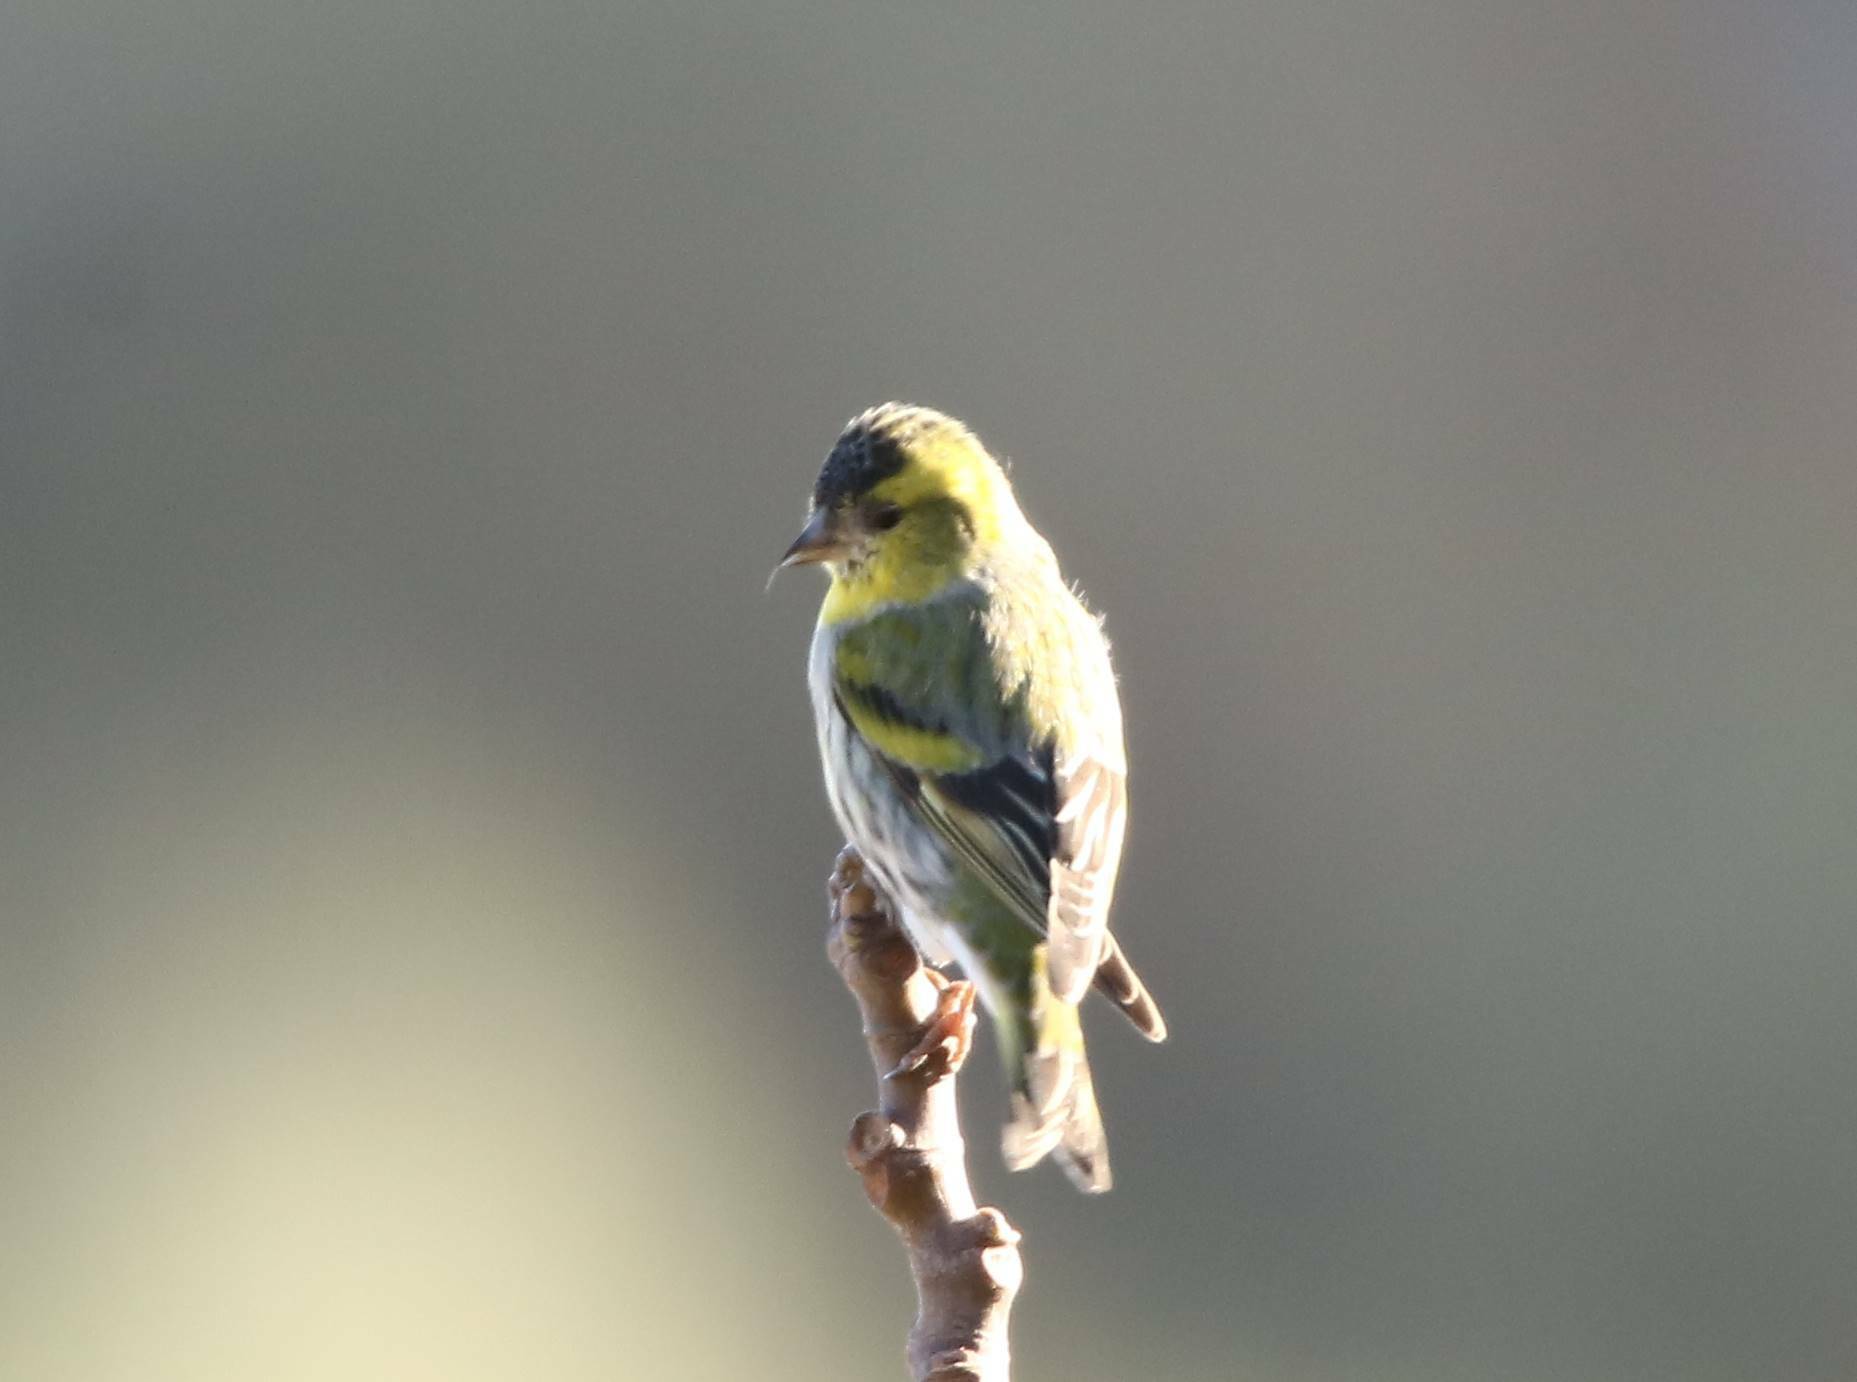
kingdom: Animalia
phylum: Chordata
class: Aves
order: Passeriformes
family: Fringillidae
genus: Spinus
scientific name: Spinus spinus
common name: Eurasian siskin
